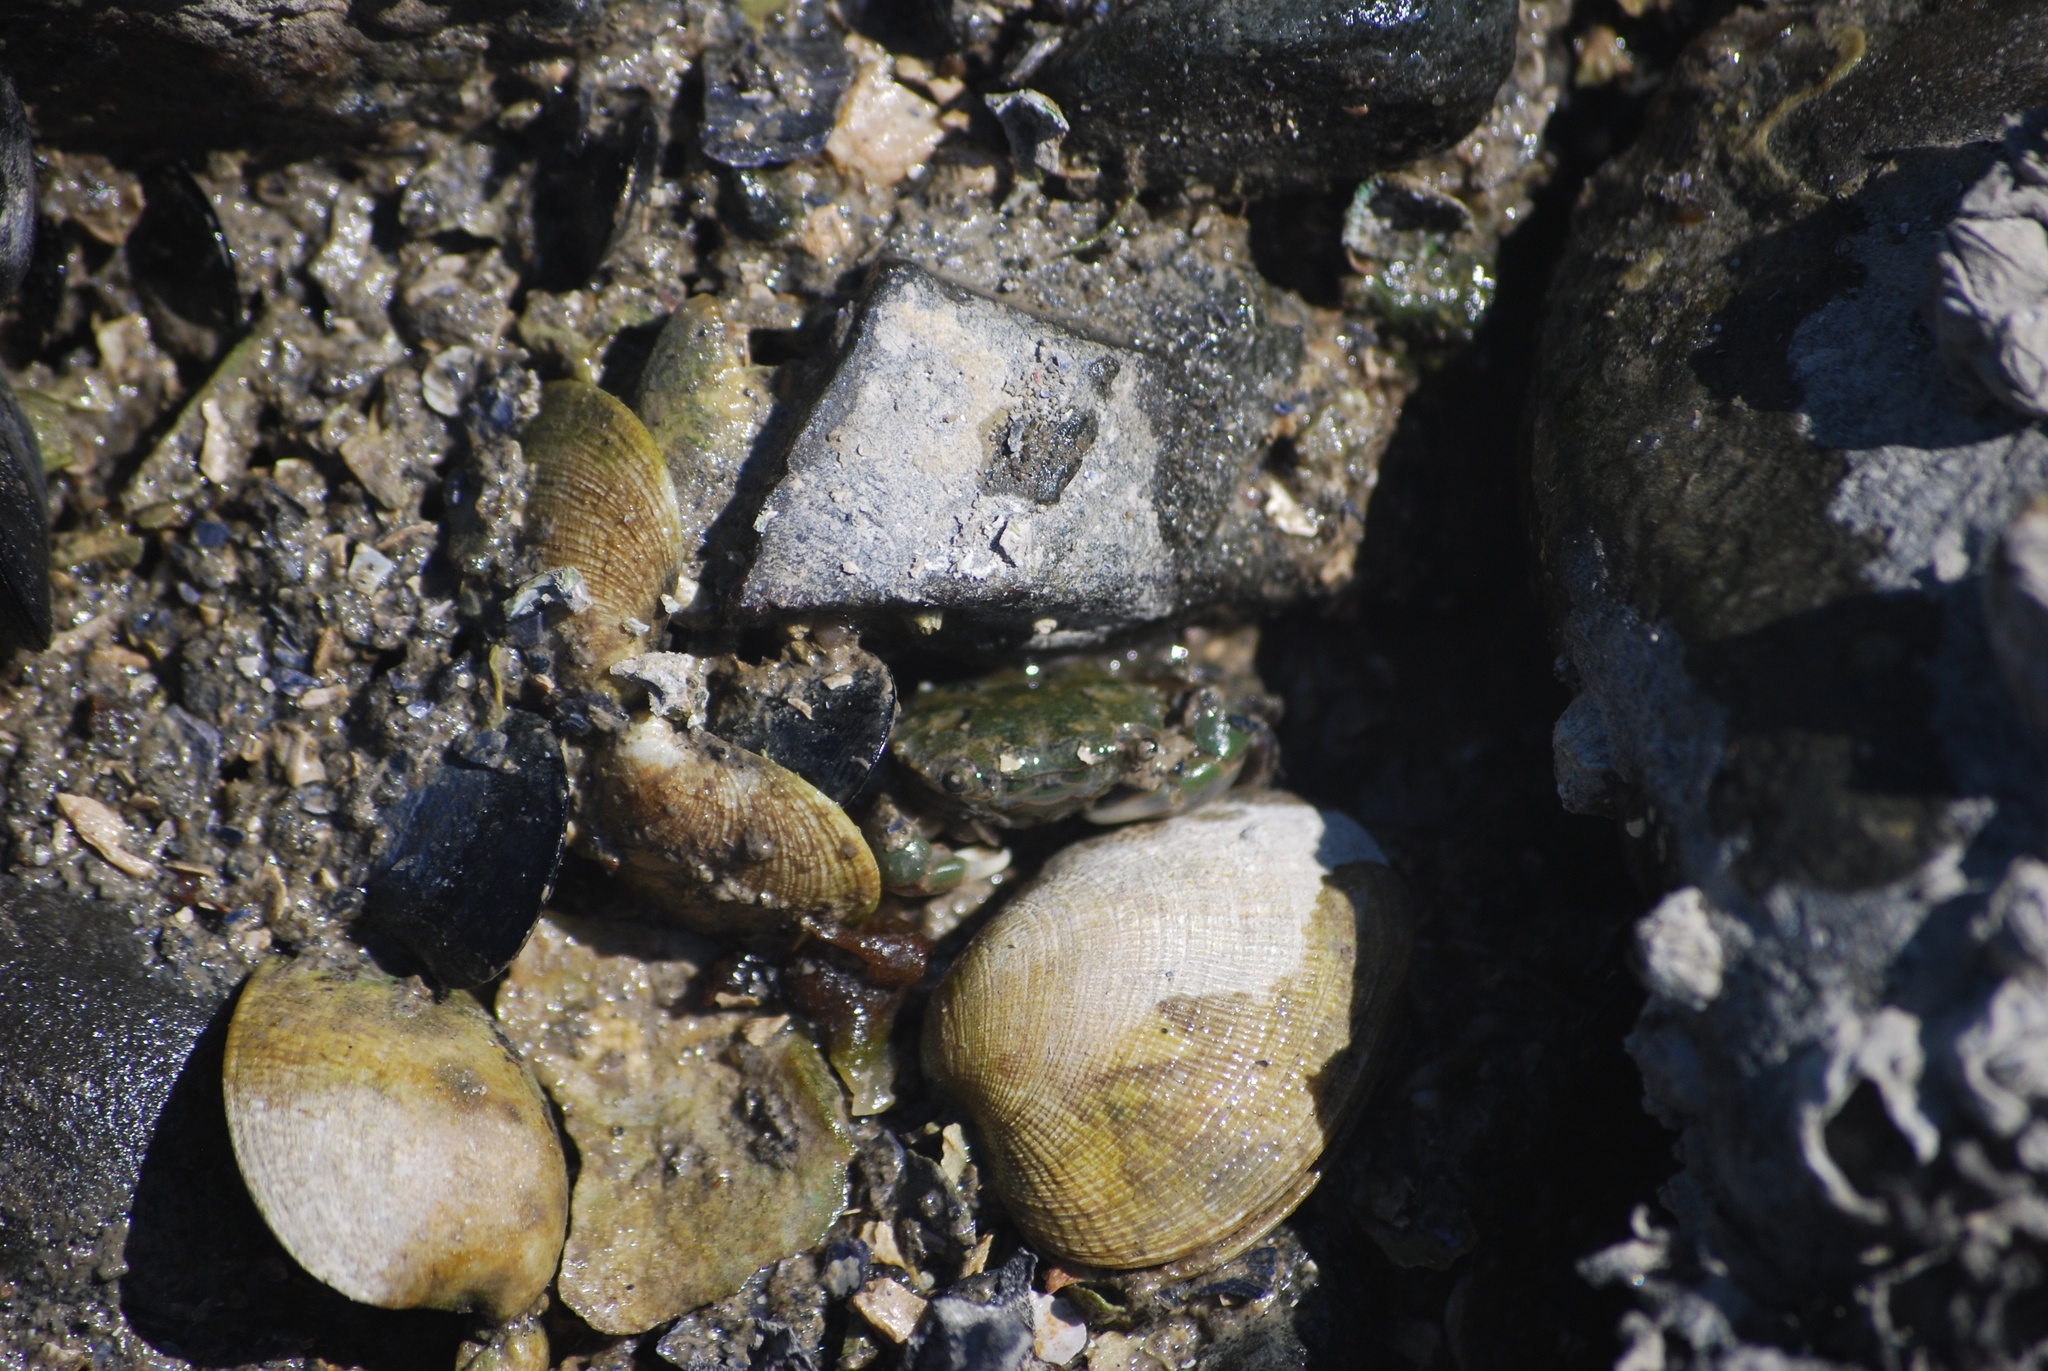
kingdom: Animalia
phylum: Arthropoda
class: Malacostraca
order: Decapoda
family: Varunidae
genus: Hemigrapsus
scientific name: Hemigrapsus oregonensis
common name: Yellow shore crab
